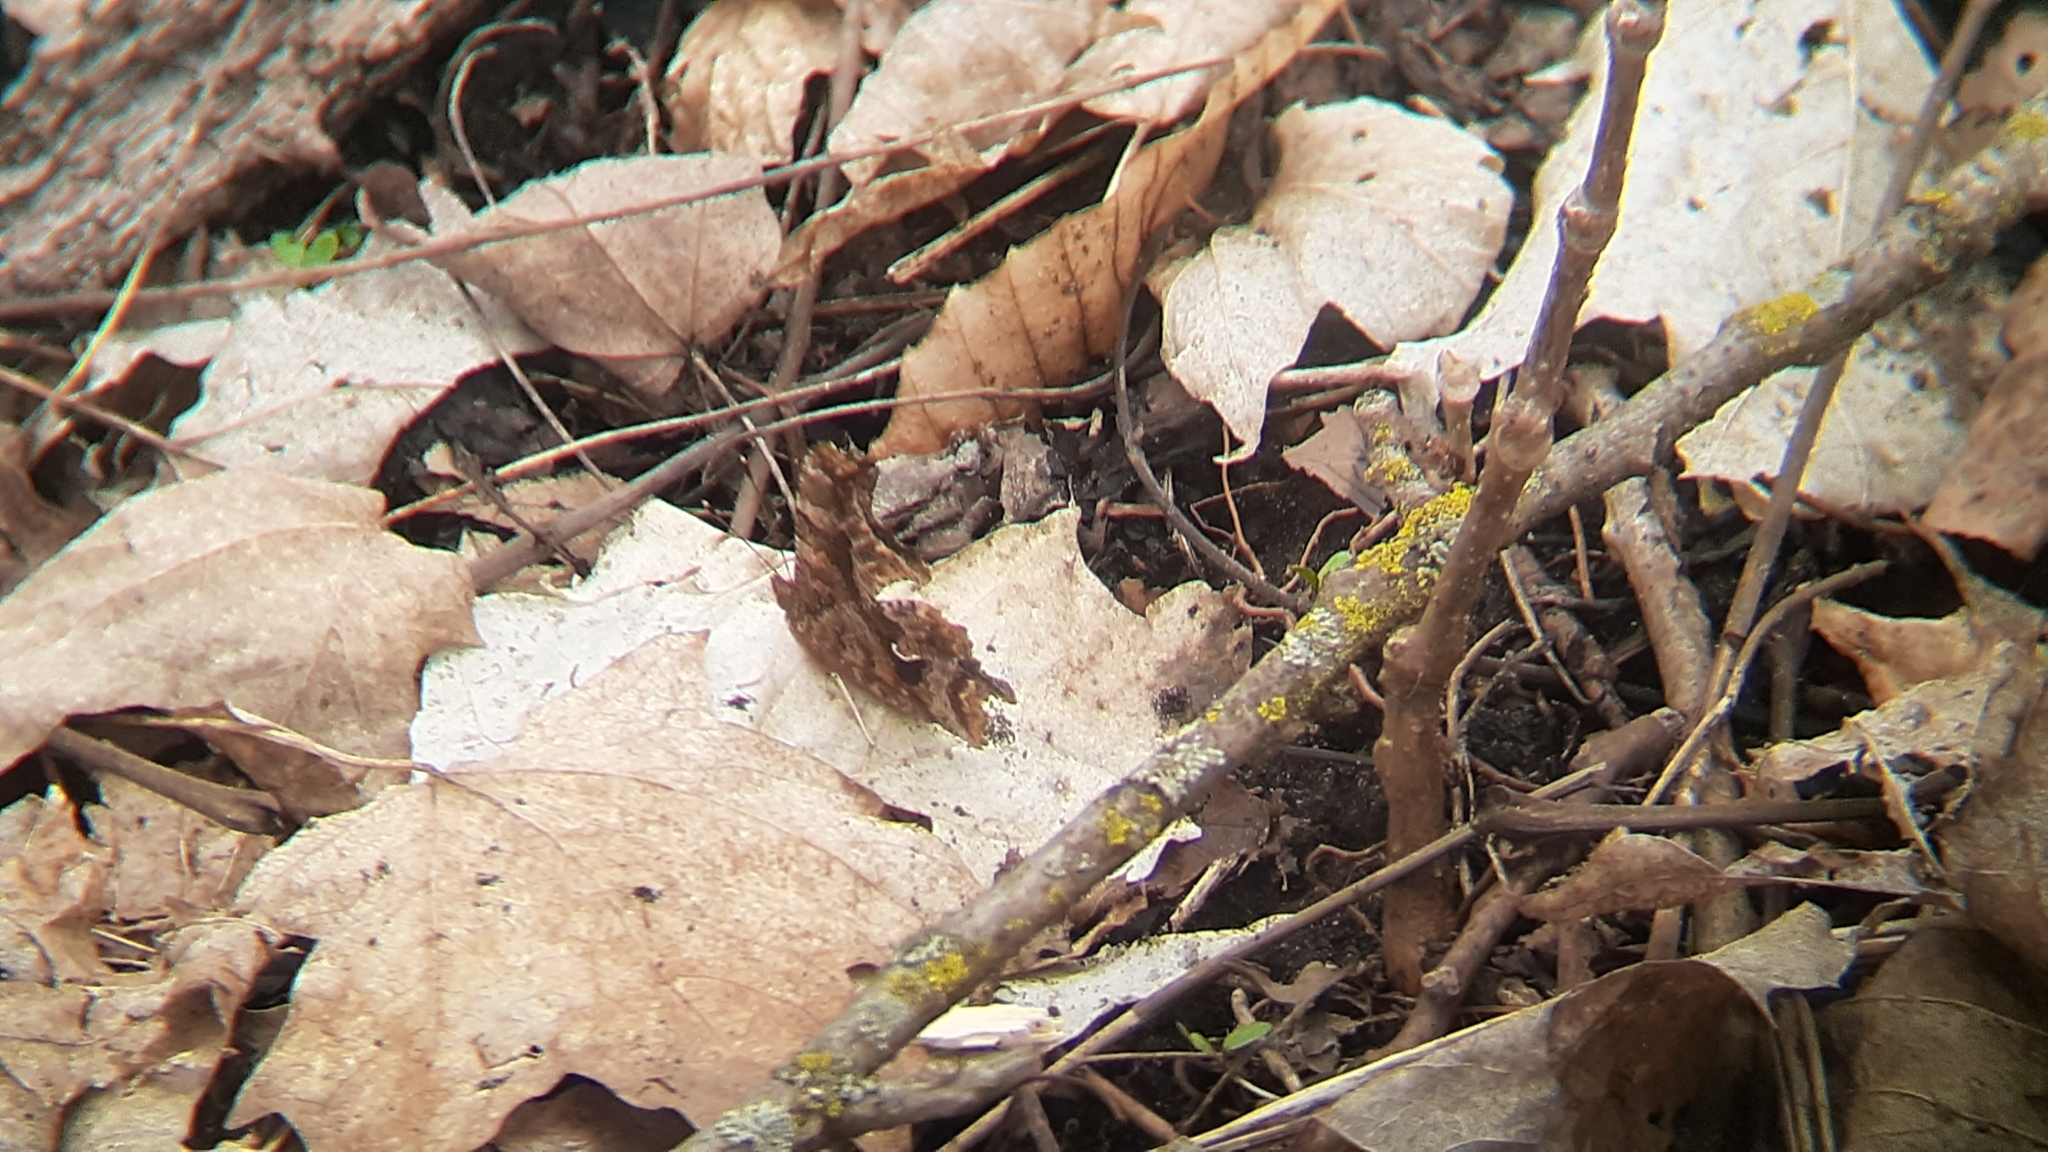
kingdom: Animalia
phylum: Arthropoda
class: Insecta
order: Lepidoptera
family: Nymphalidae
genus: Polygonia
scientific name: Polygonia comma
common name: Eastern comma
